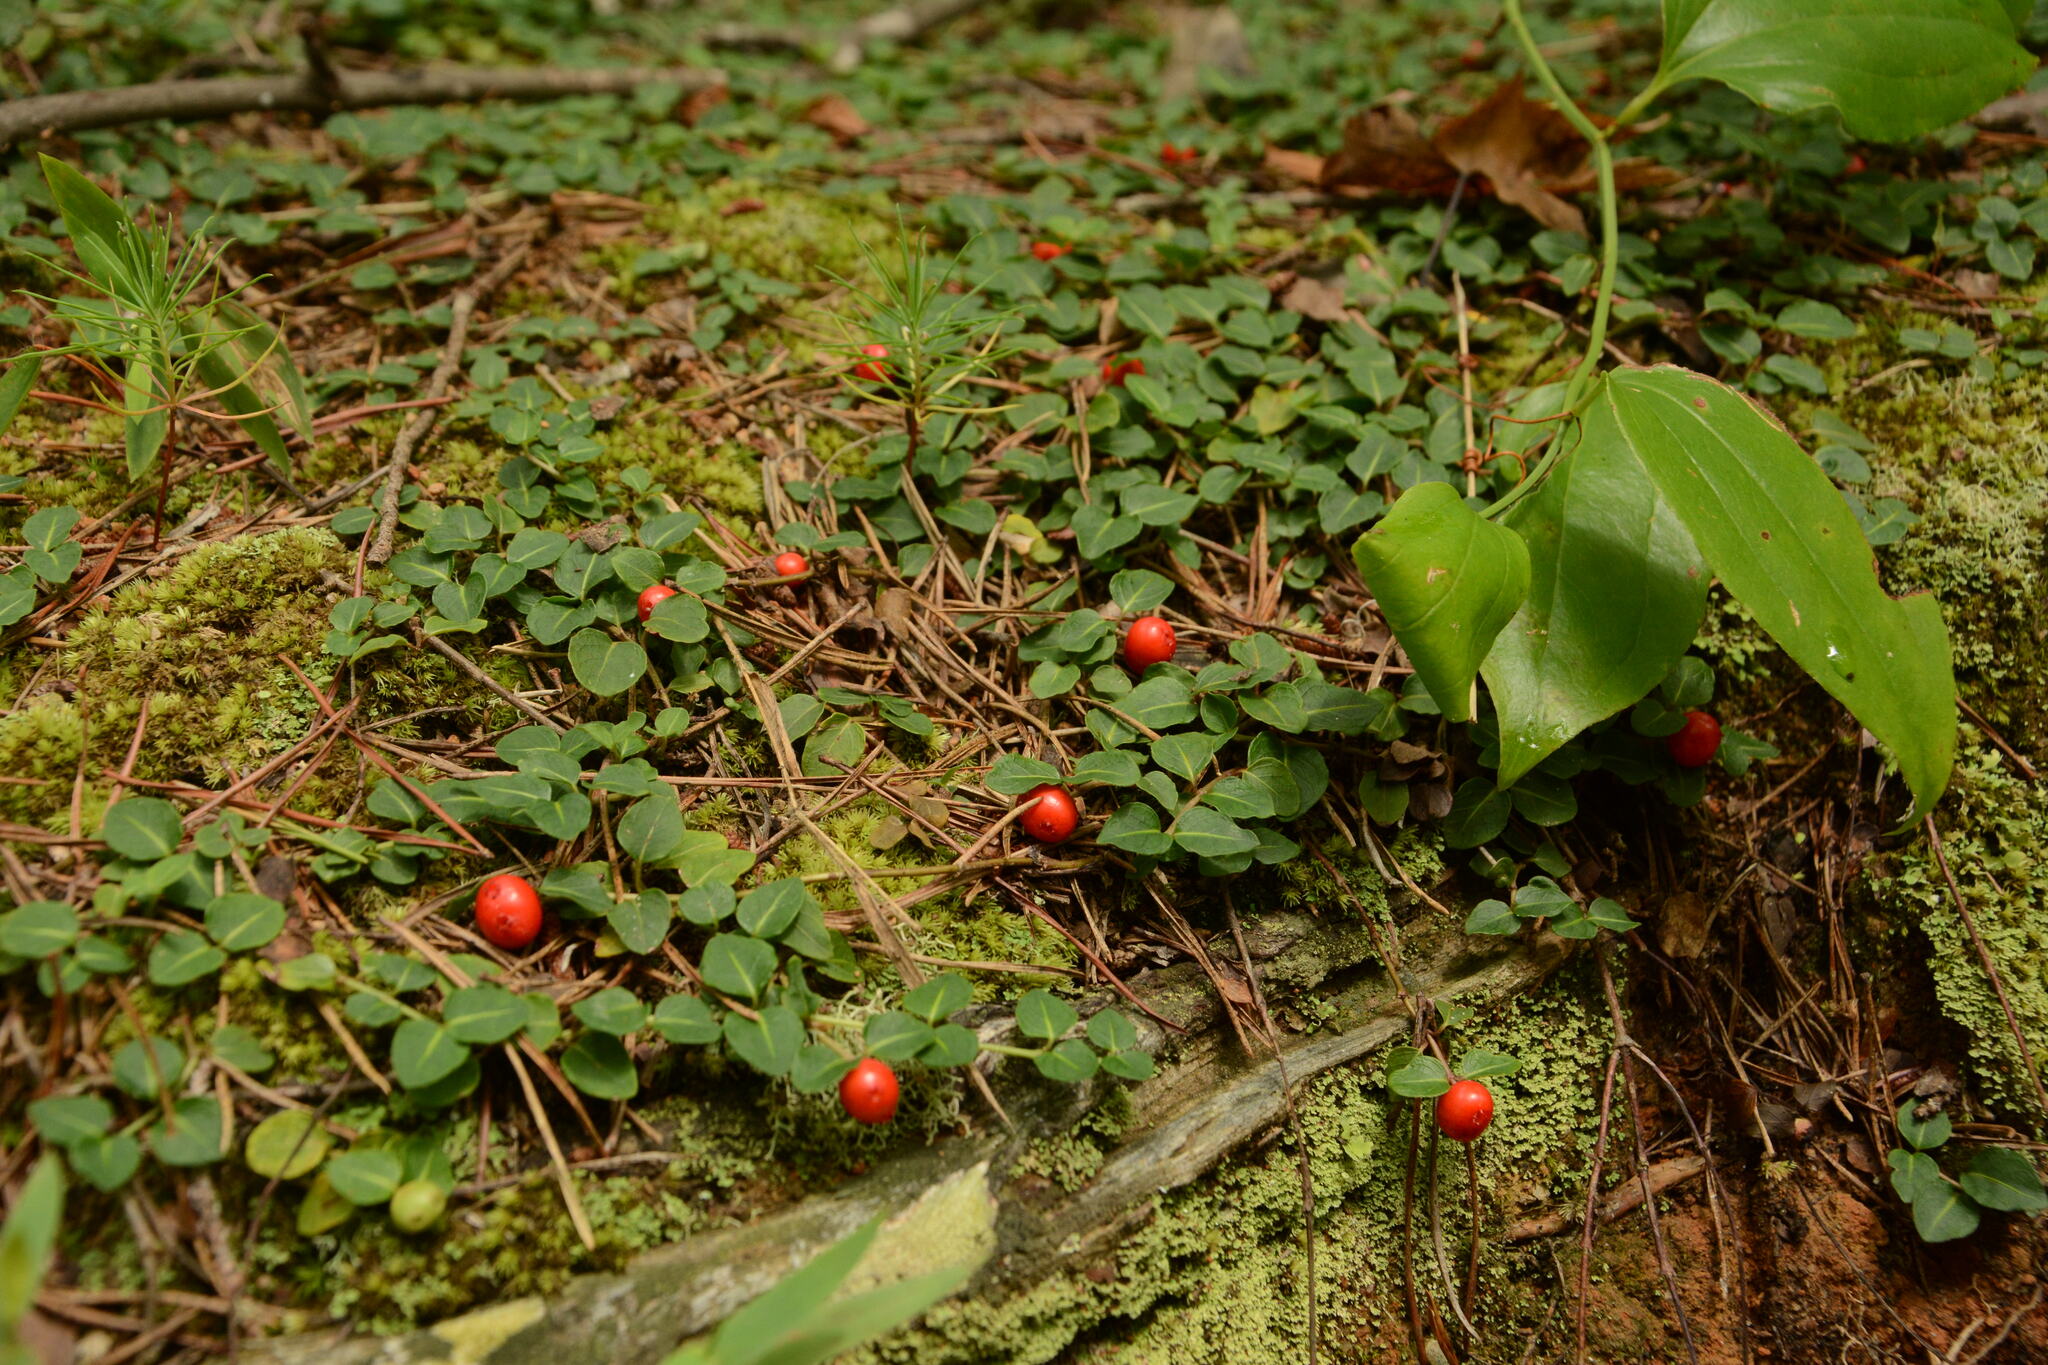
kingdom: Plantae
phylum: Tracheophyta
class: Magnoliopsida
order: Gentianales
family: Rubiaceae
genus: Mitchella
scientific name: Mitchella repens
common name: Partridge-berry
